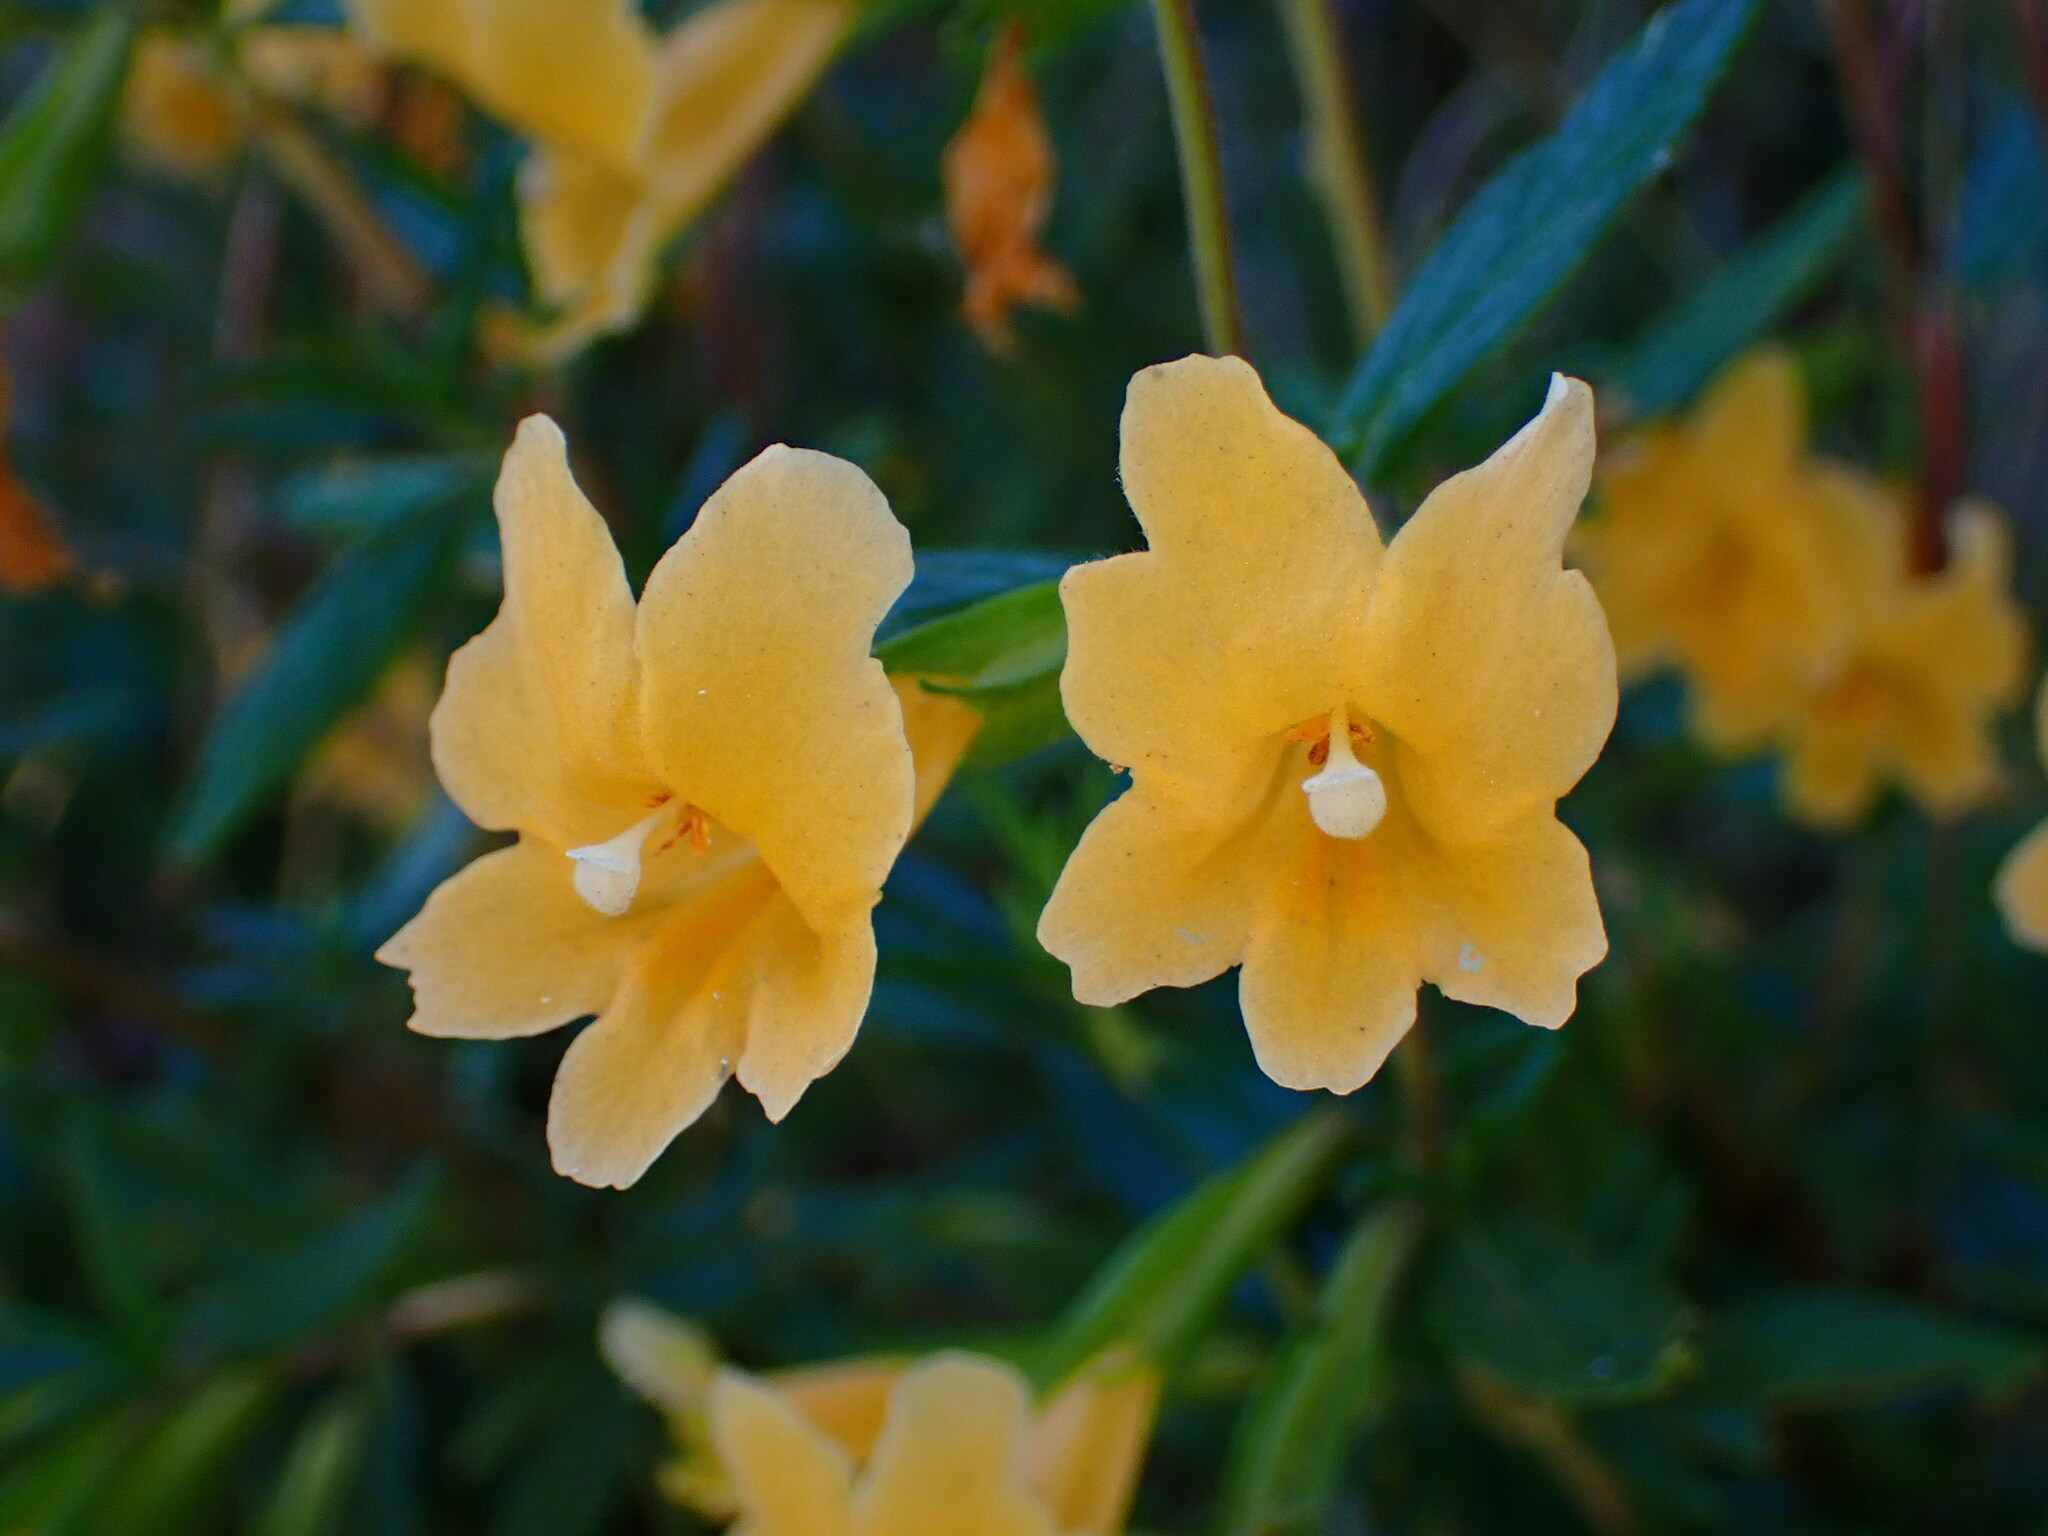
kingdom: Plantae
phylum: Tracheophyta
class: Magnoliopsida
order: Lamiales
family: Phrymaceae
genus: Diplacus
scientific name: Diplacus aurantiacus
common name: Bush monkey-flower
